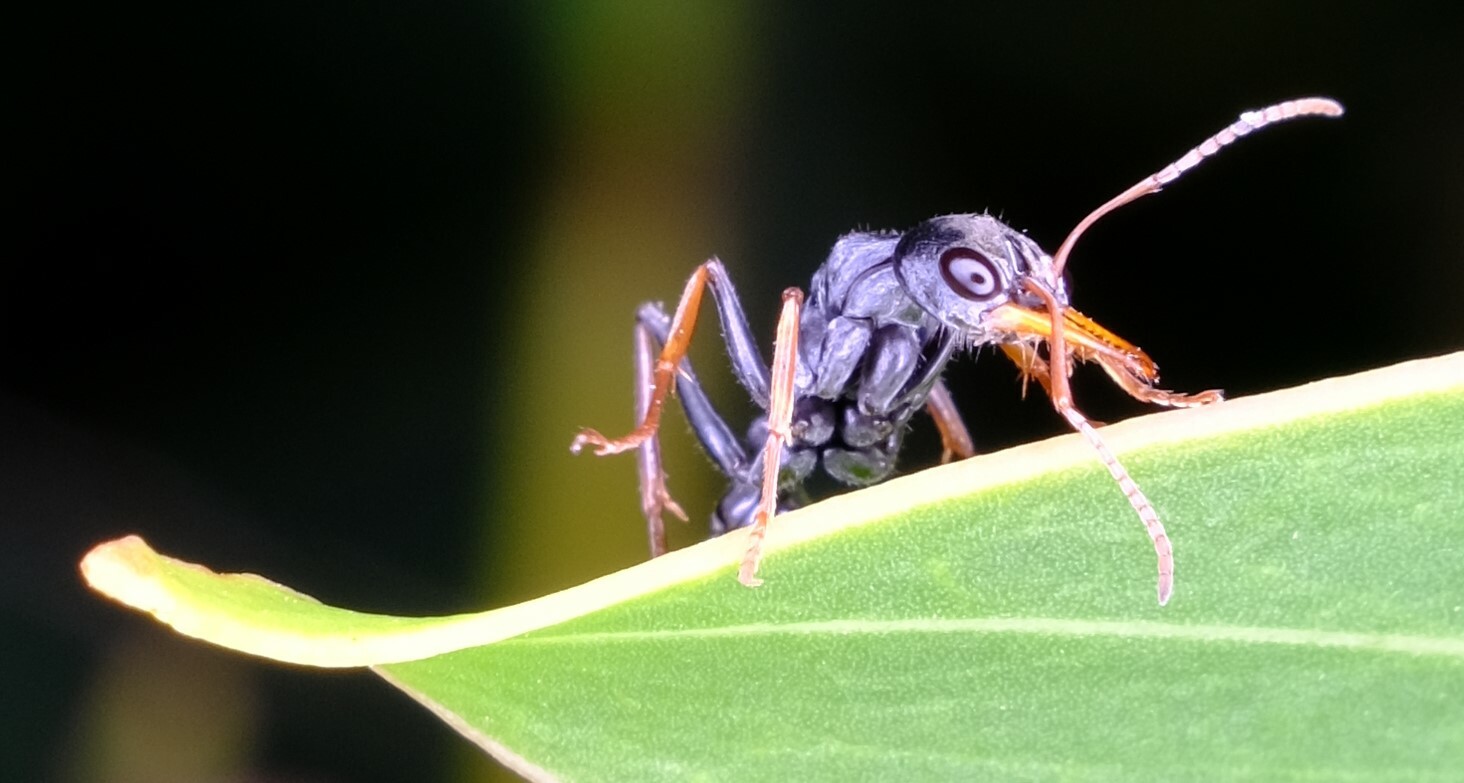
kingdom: Animalia
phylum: Arthropoda
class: Insecta
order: Hymenoptera
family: Formicidae
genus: Myrmecia
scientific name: Myrmecia pilosula
